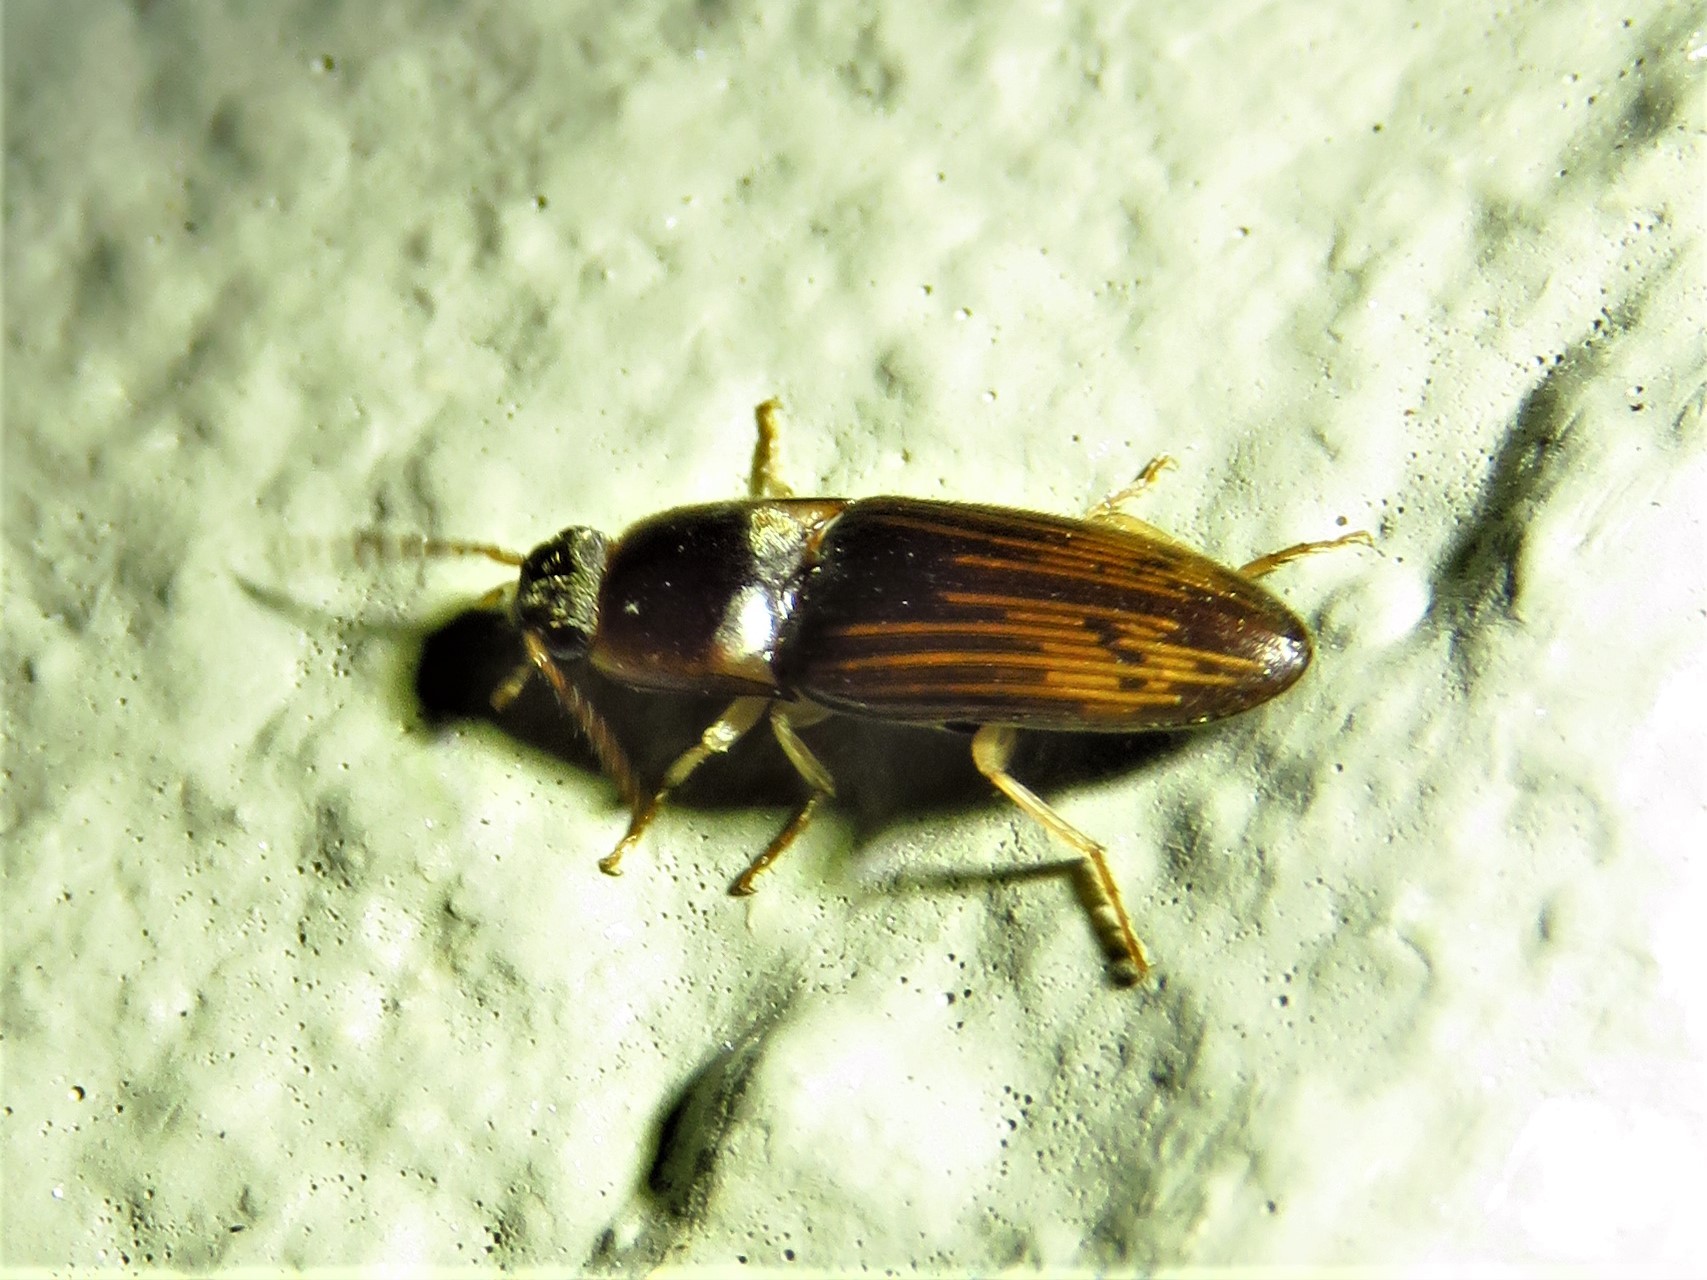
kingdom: Animalia
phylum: Arthropoda
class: Insecta
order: Coleoptera
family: Elateridae
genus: Monocrepidius
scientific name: Monocrepidius
